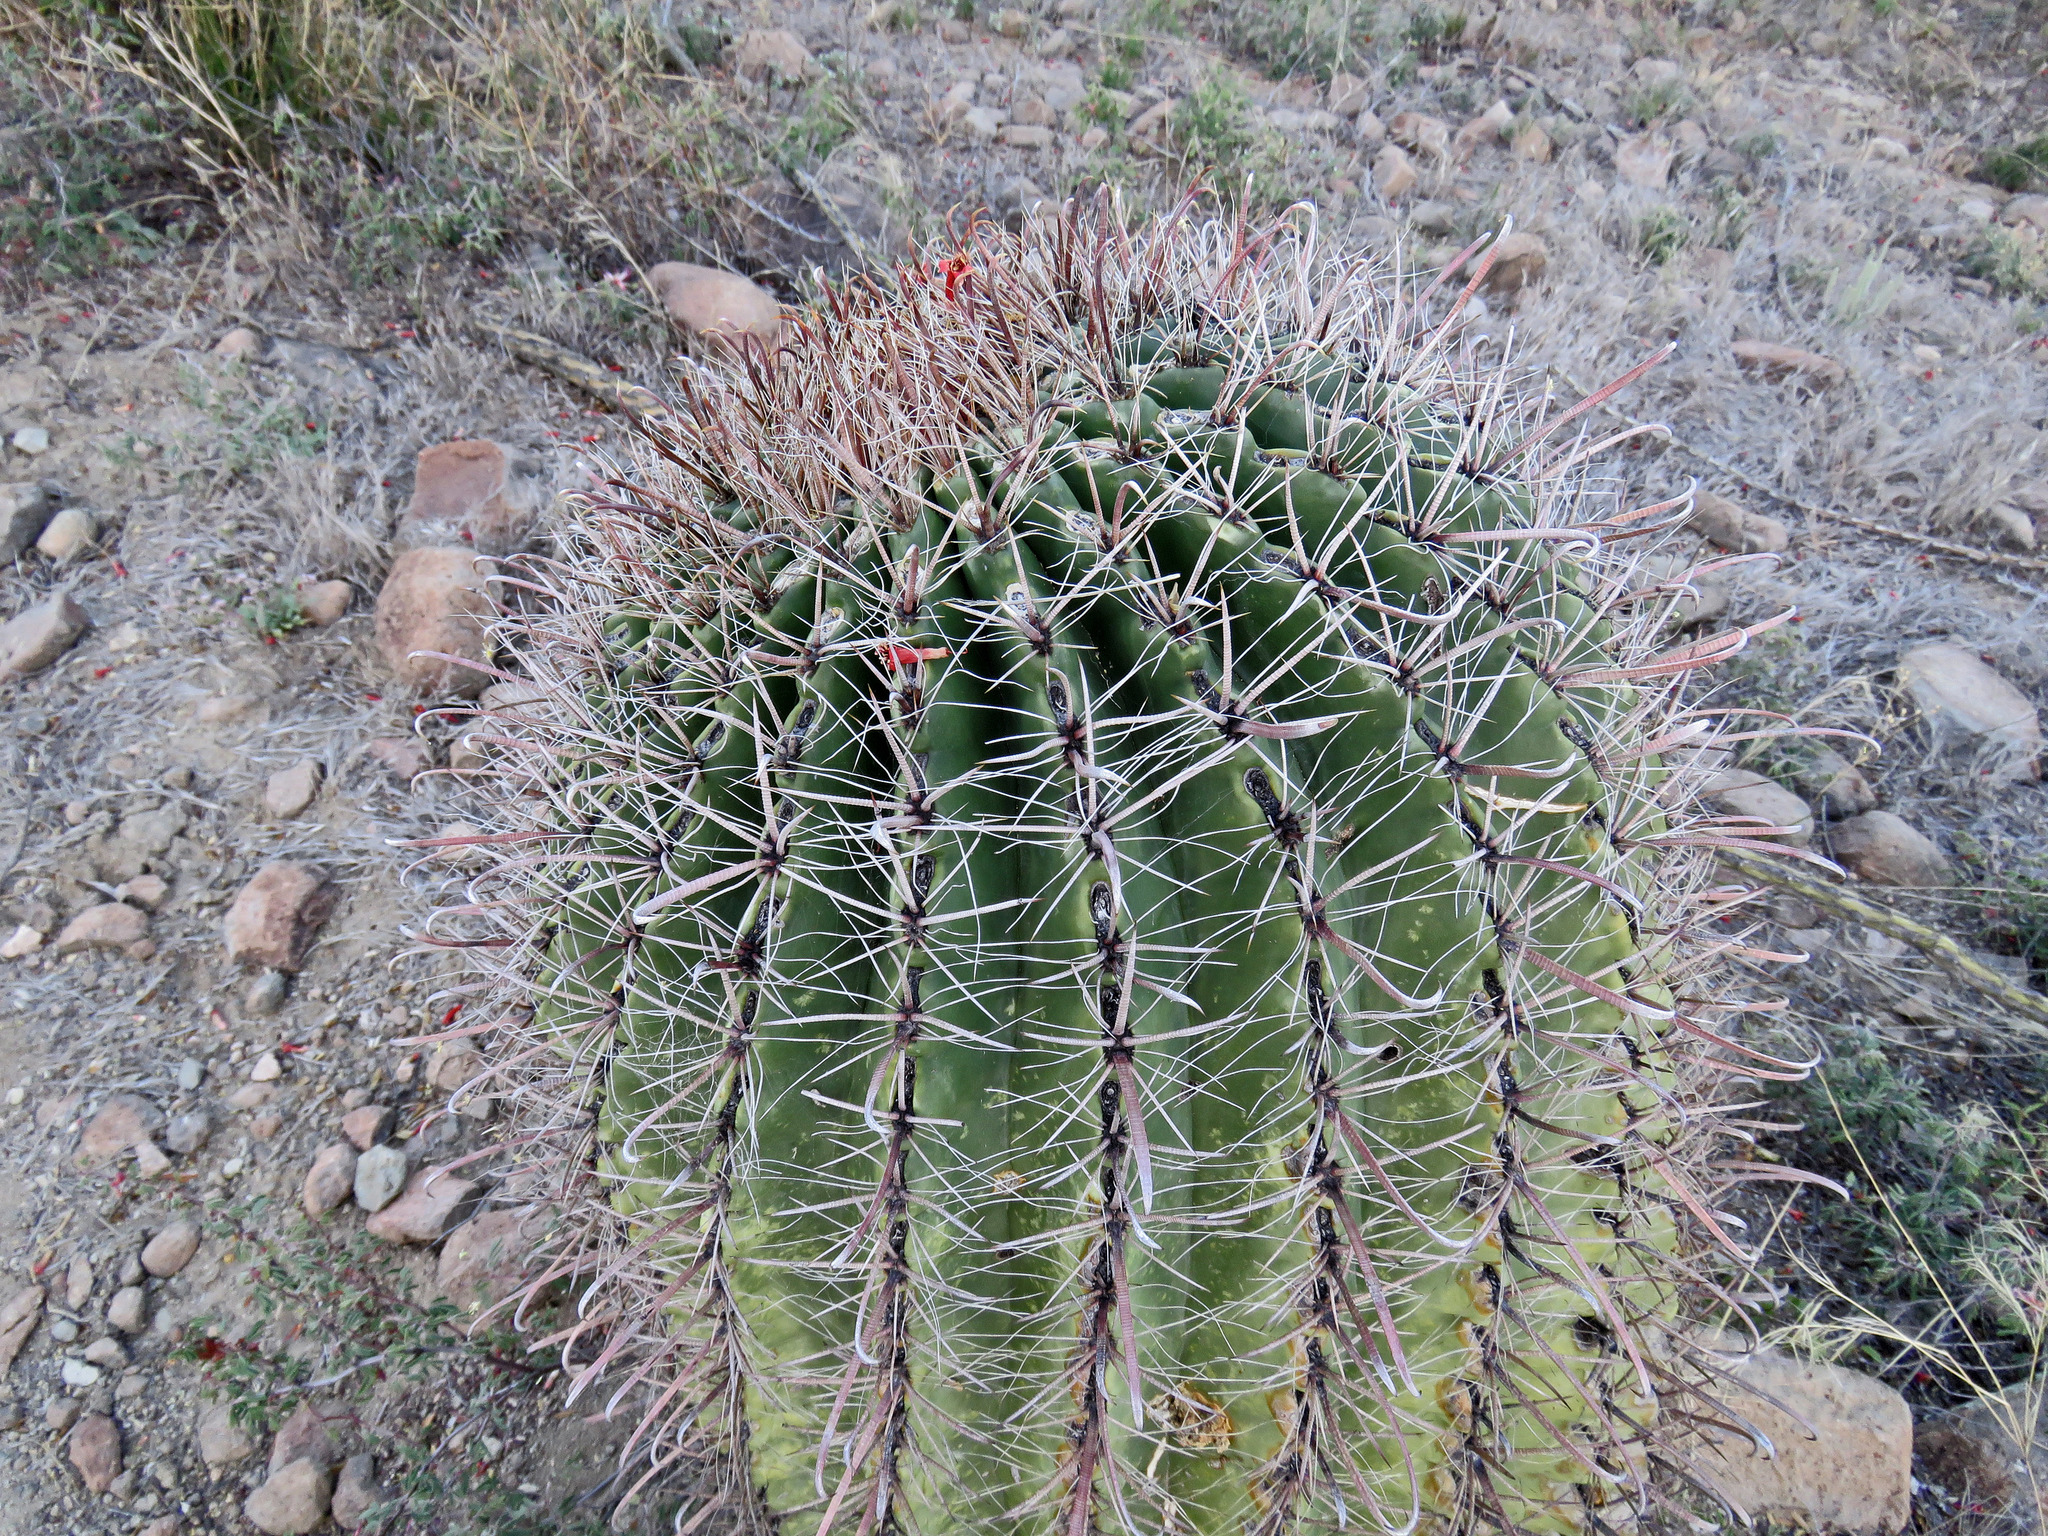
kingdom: Plantae
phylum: Tracheophyta
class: Magnoliopsida
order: Caryophyllales
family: Cactaceae
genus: Ferocactus
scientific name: Ferocactus wislizeni
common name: Candy barrel cactus
